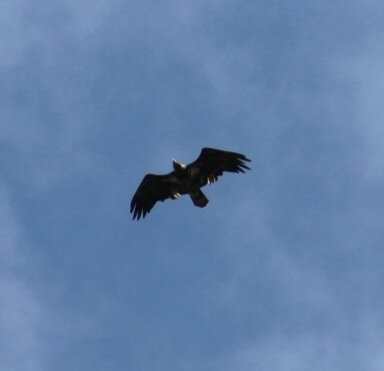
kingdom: Animalia
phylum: Chordata
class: Aves
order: Accipitriformes
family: Accipitridae
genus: Haliaeetus
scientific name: Haliaeetus leucocephalus
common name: Bald eagle
